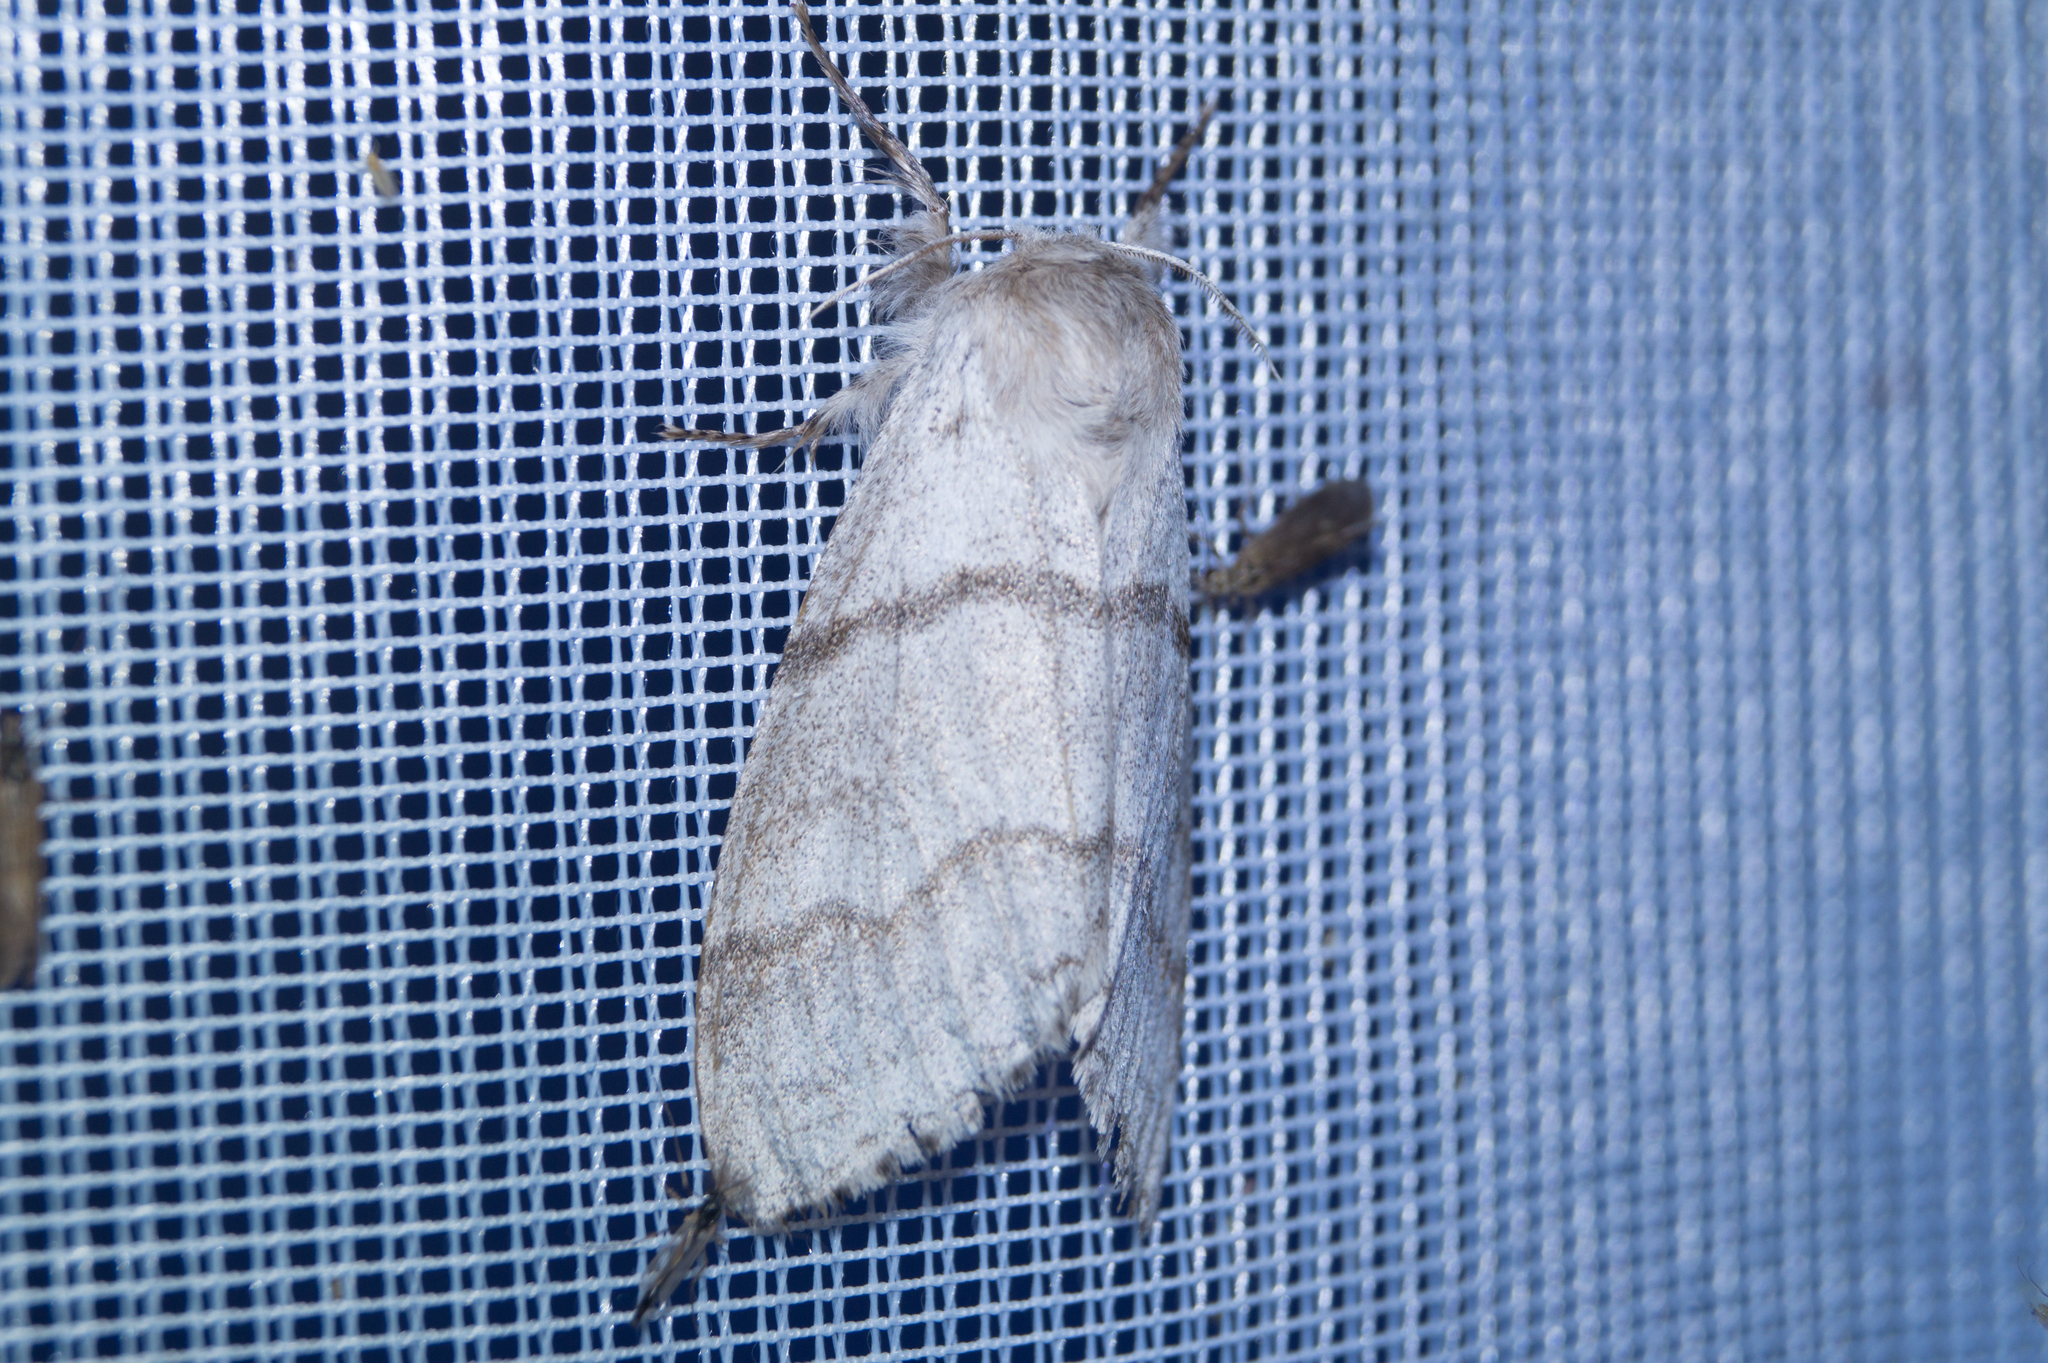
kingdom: Animalia
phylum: Arthropoda
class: Insecta
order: Lepidoptera
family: Erebidae
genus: Calliteara
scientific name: Calliteara pudibunda
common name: Pale tussock
